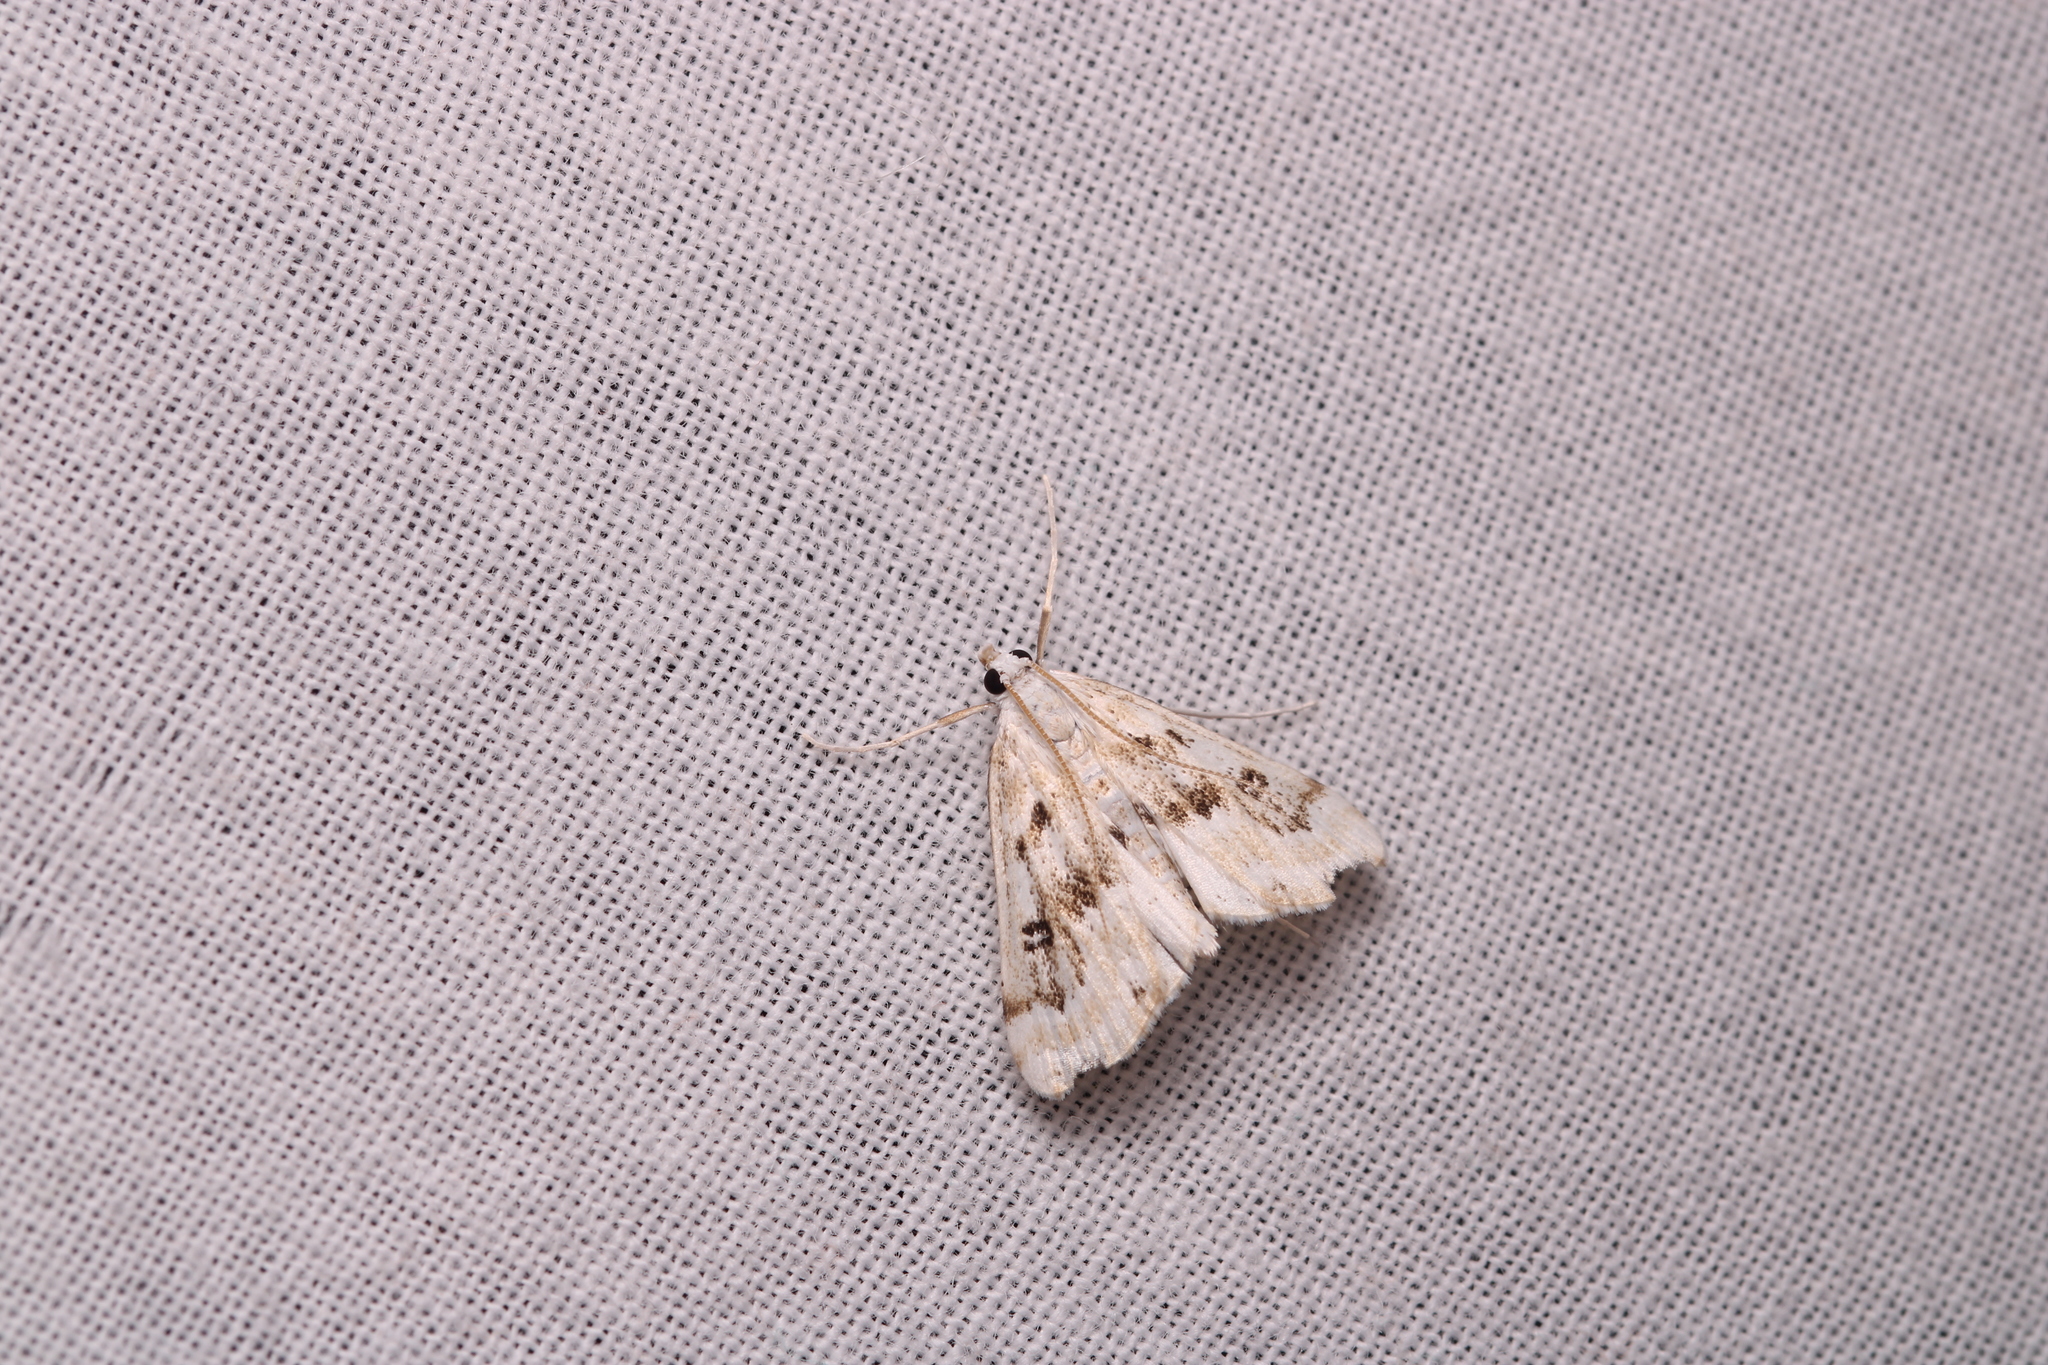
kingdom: Animalia
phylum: Arthropoda
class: Insecta
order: Lepidoptera
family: Crambidae
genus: Parapoynx
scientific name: Parapoynx stratiotata
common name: Ringed china-mark
